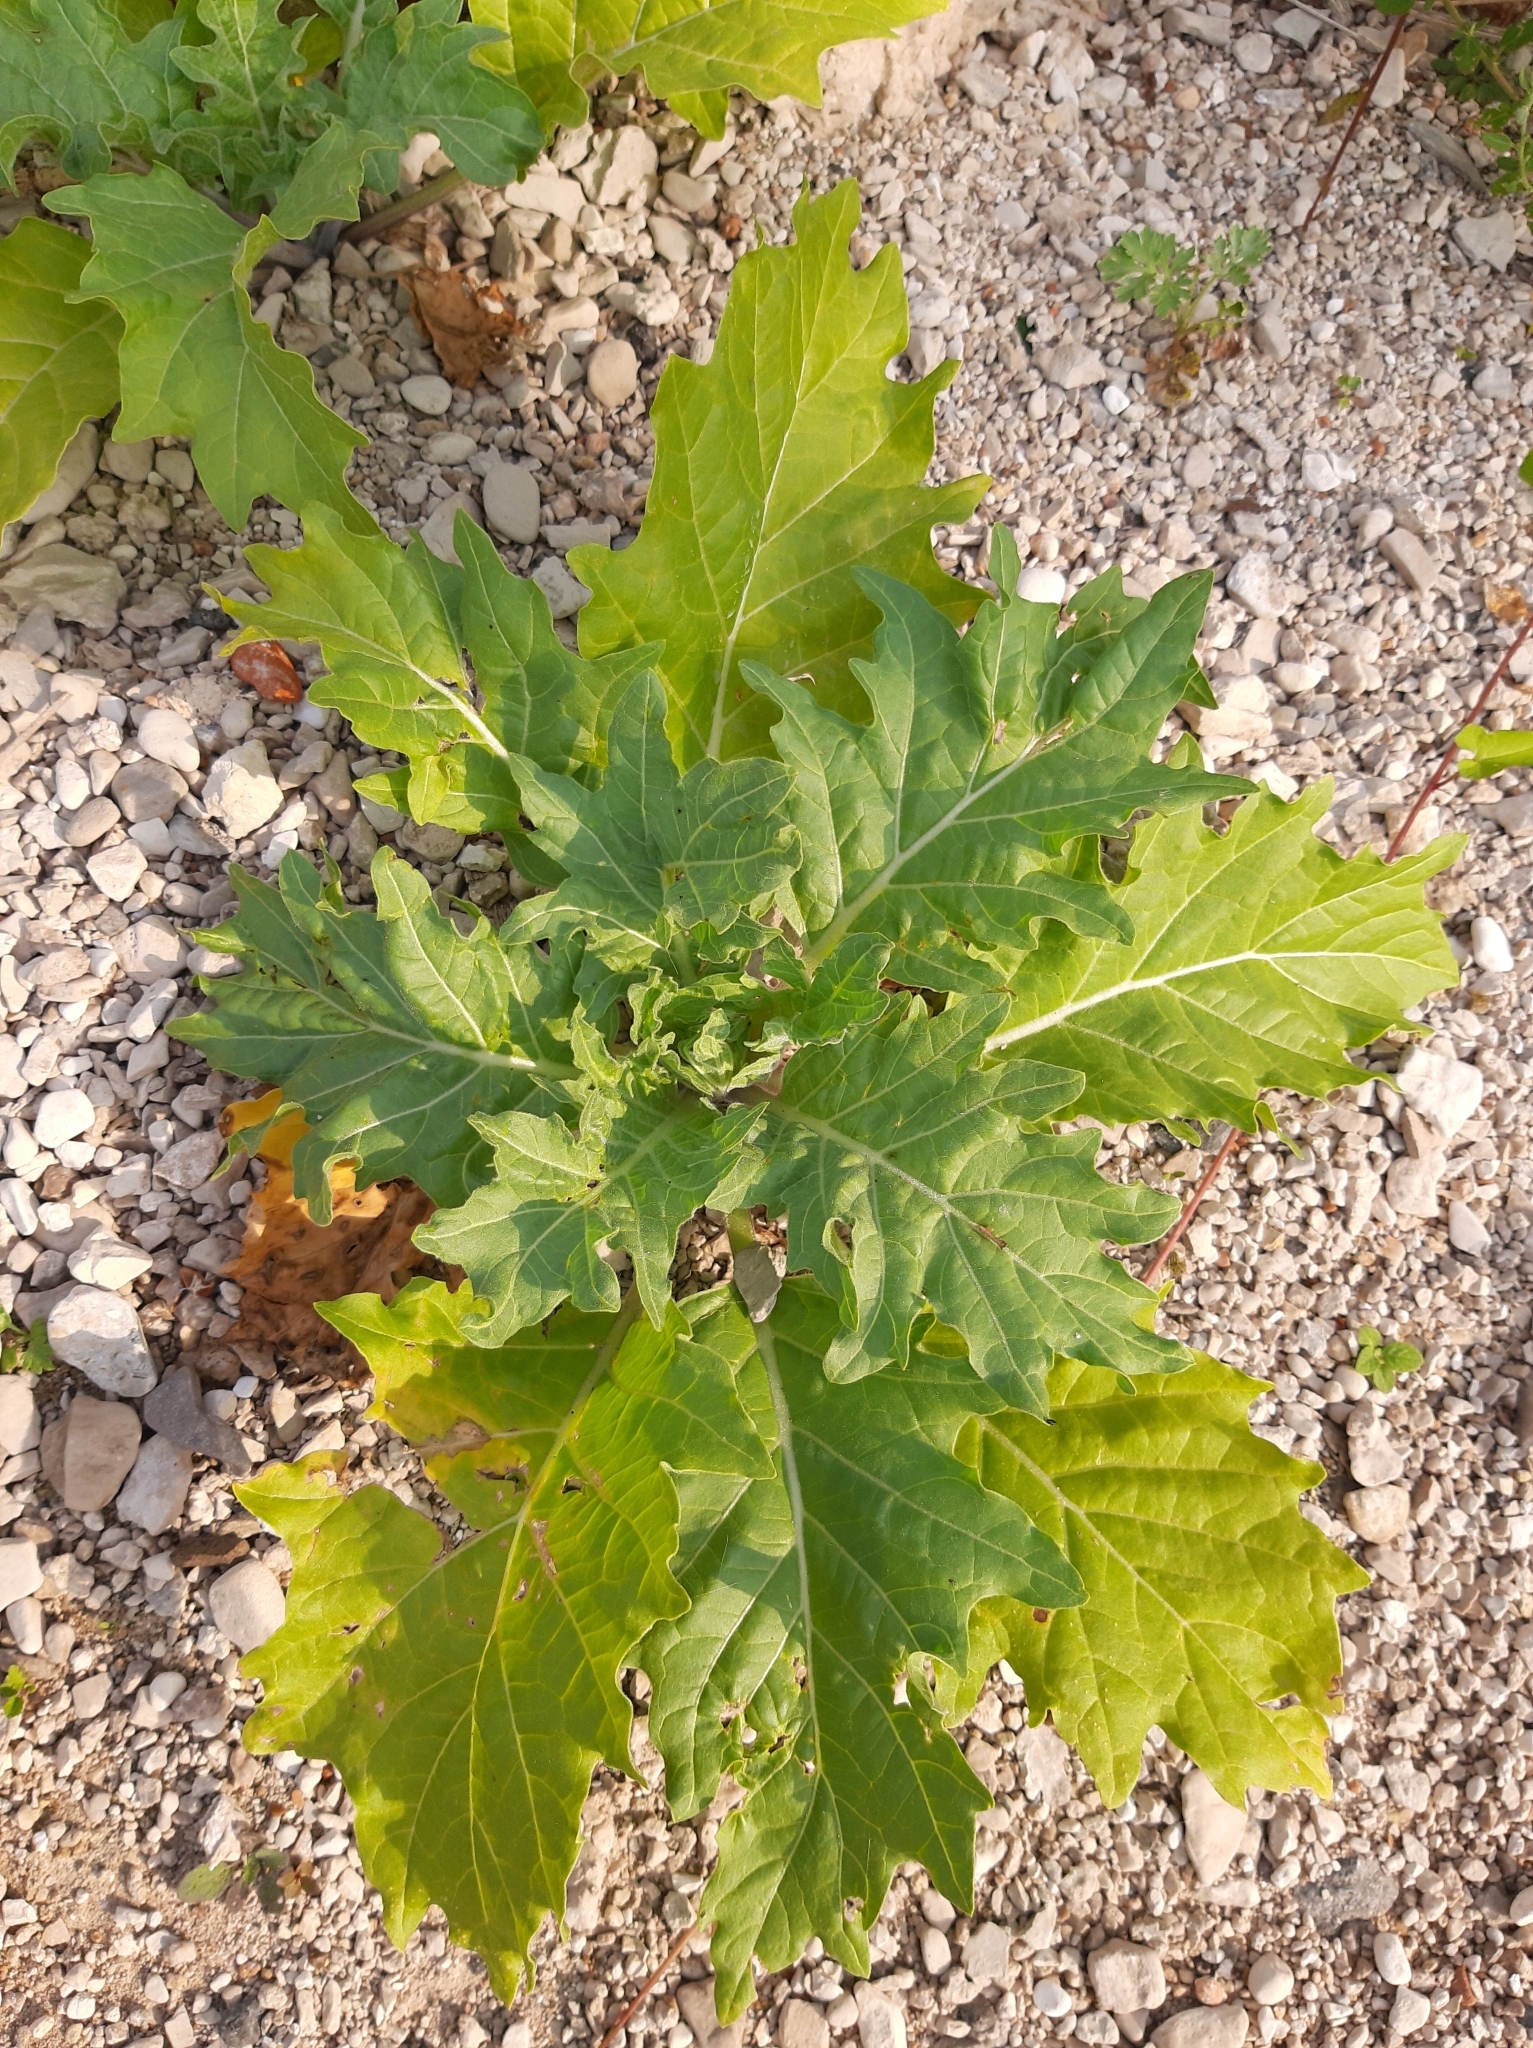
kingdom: Plantae
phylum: Tracheophyta
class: Magnoliopsida
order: Solanales
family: Solanaceae
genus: Hyoscyamus
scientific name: Hyoscyamus niger
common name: Henbane
